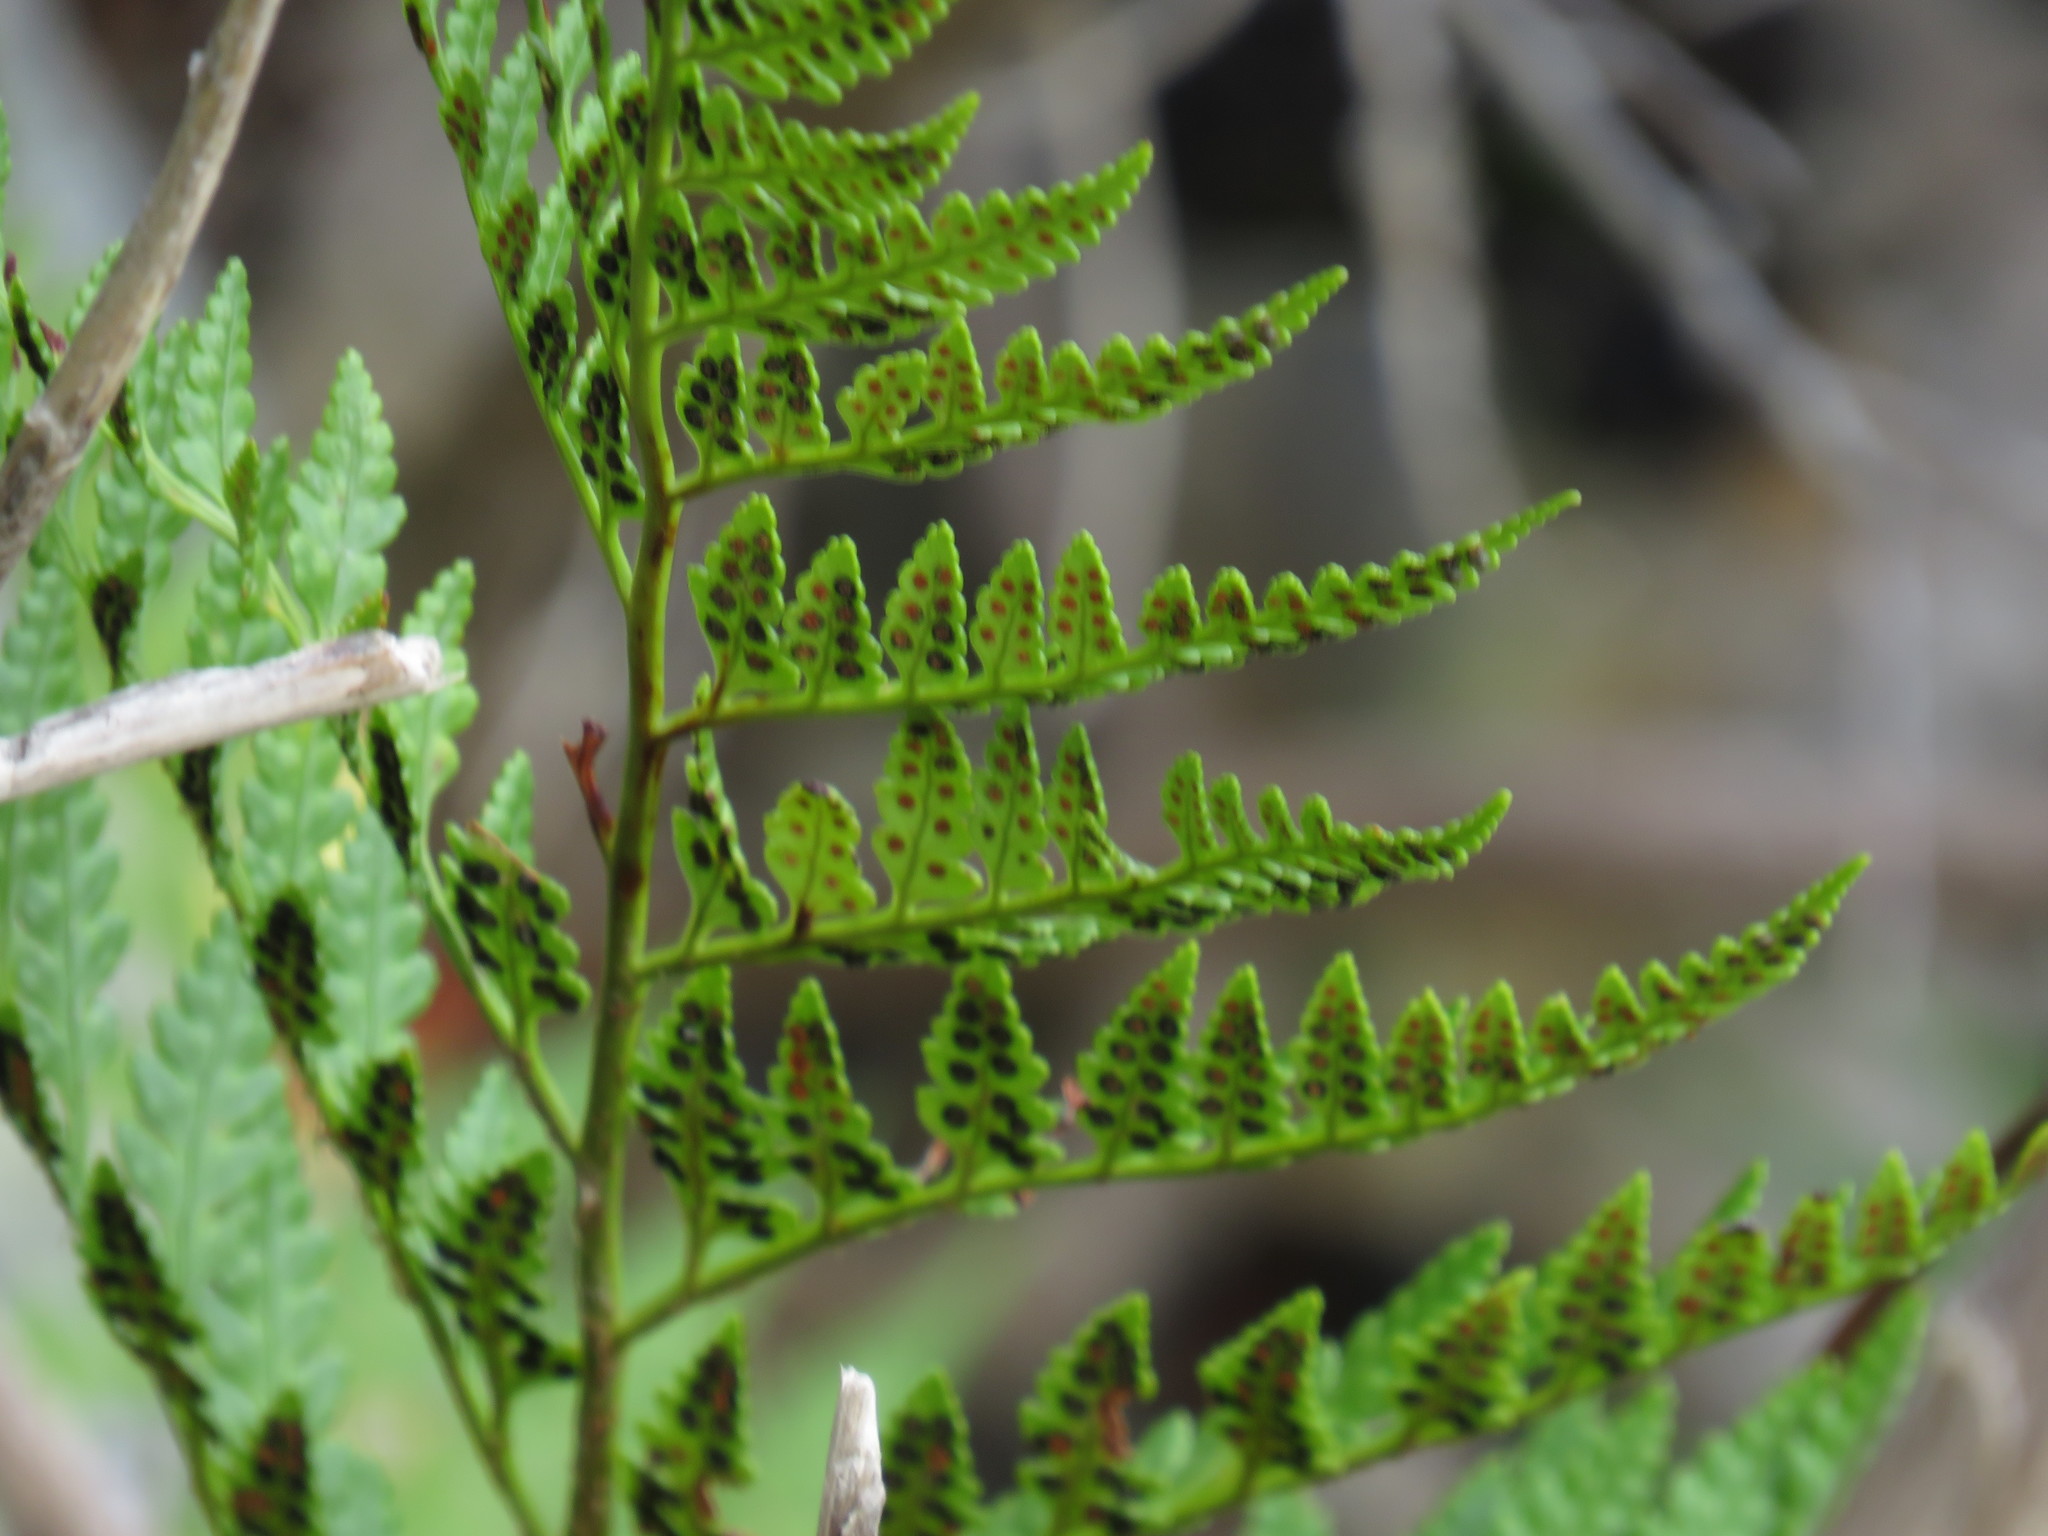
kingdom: Plantae
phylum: Tracheophyta
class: Polypodiopsida
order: Polypodiales
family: Dryopteridaceae
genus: Rumohra
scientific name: Rumohra adiantiformis
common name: Leather fern
